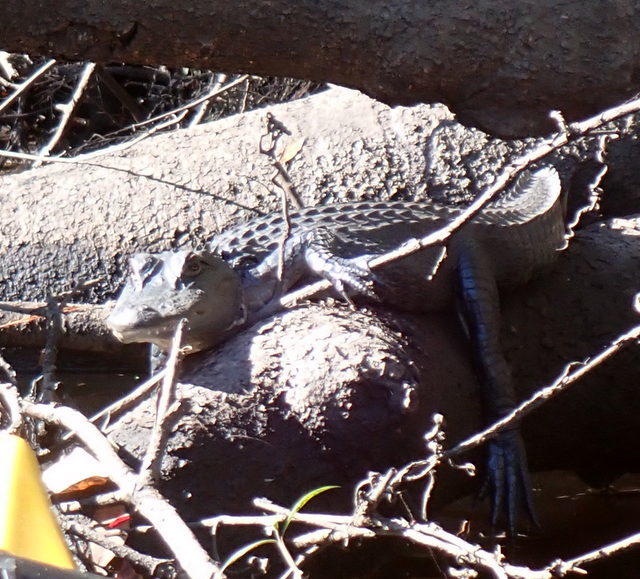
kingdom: Animalia
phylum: Chordata
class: Crocodylia
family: Alligatoridae
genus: Alligator
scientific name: Alligator mississippiensis
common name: American alligator
